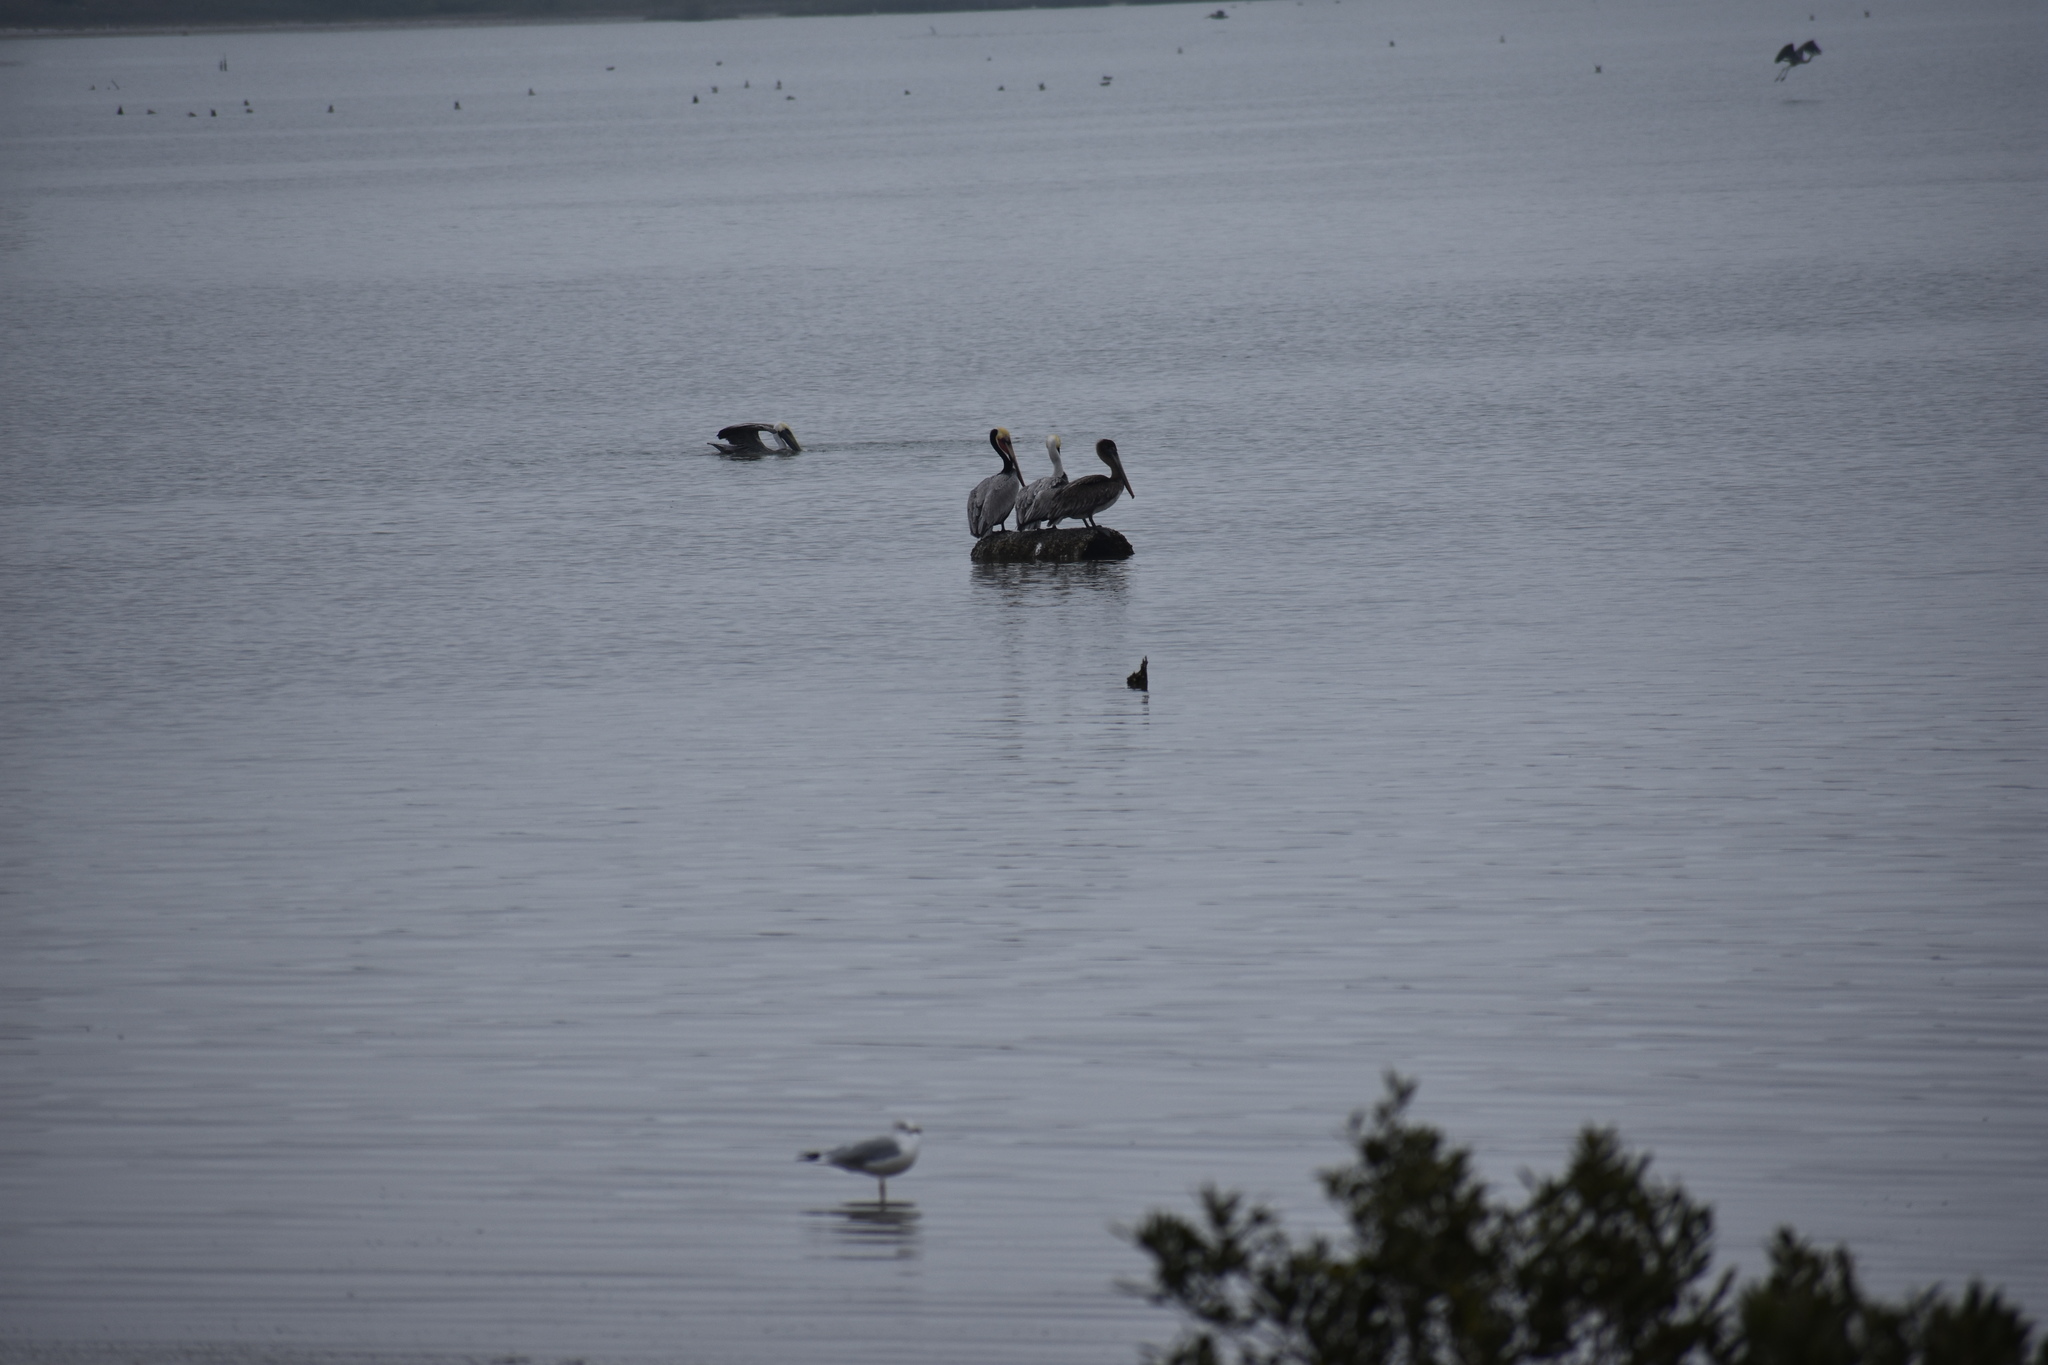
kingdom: Animalia
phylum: Chordata
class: Aves
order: Pelecaniformes
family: Pelecanidae
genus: Pelecanus
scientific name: Pelecanus occidentalis
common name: Brown pelican
